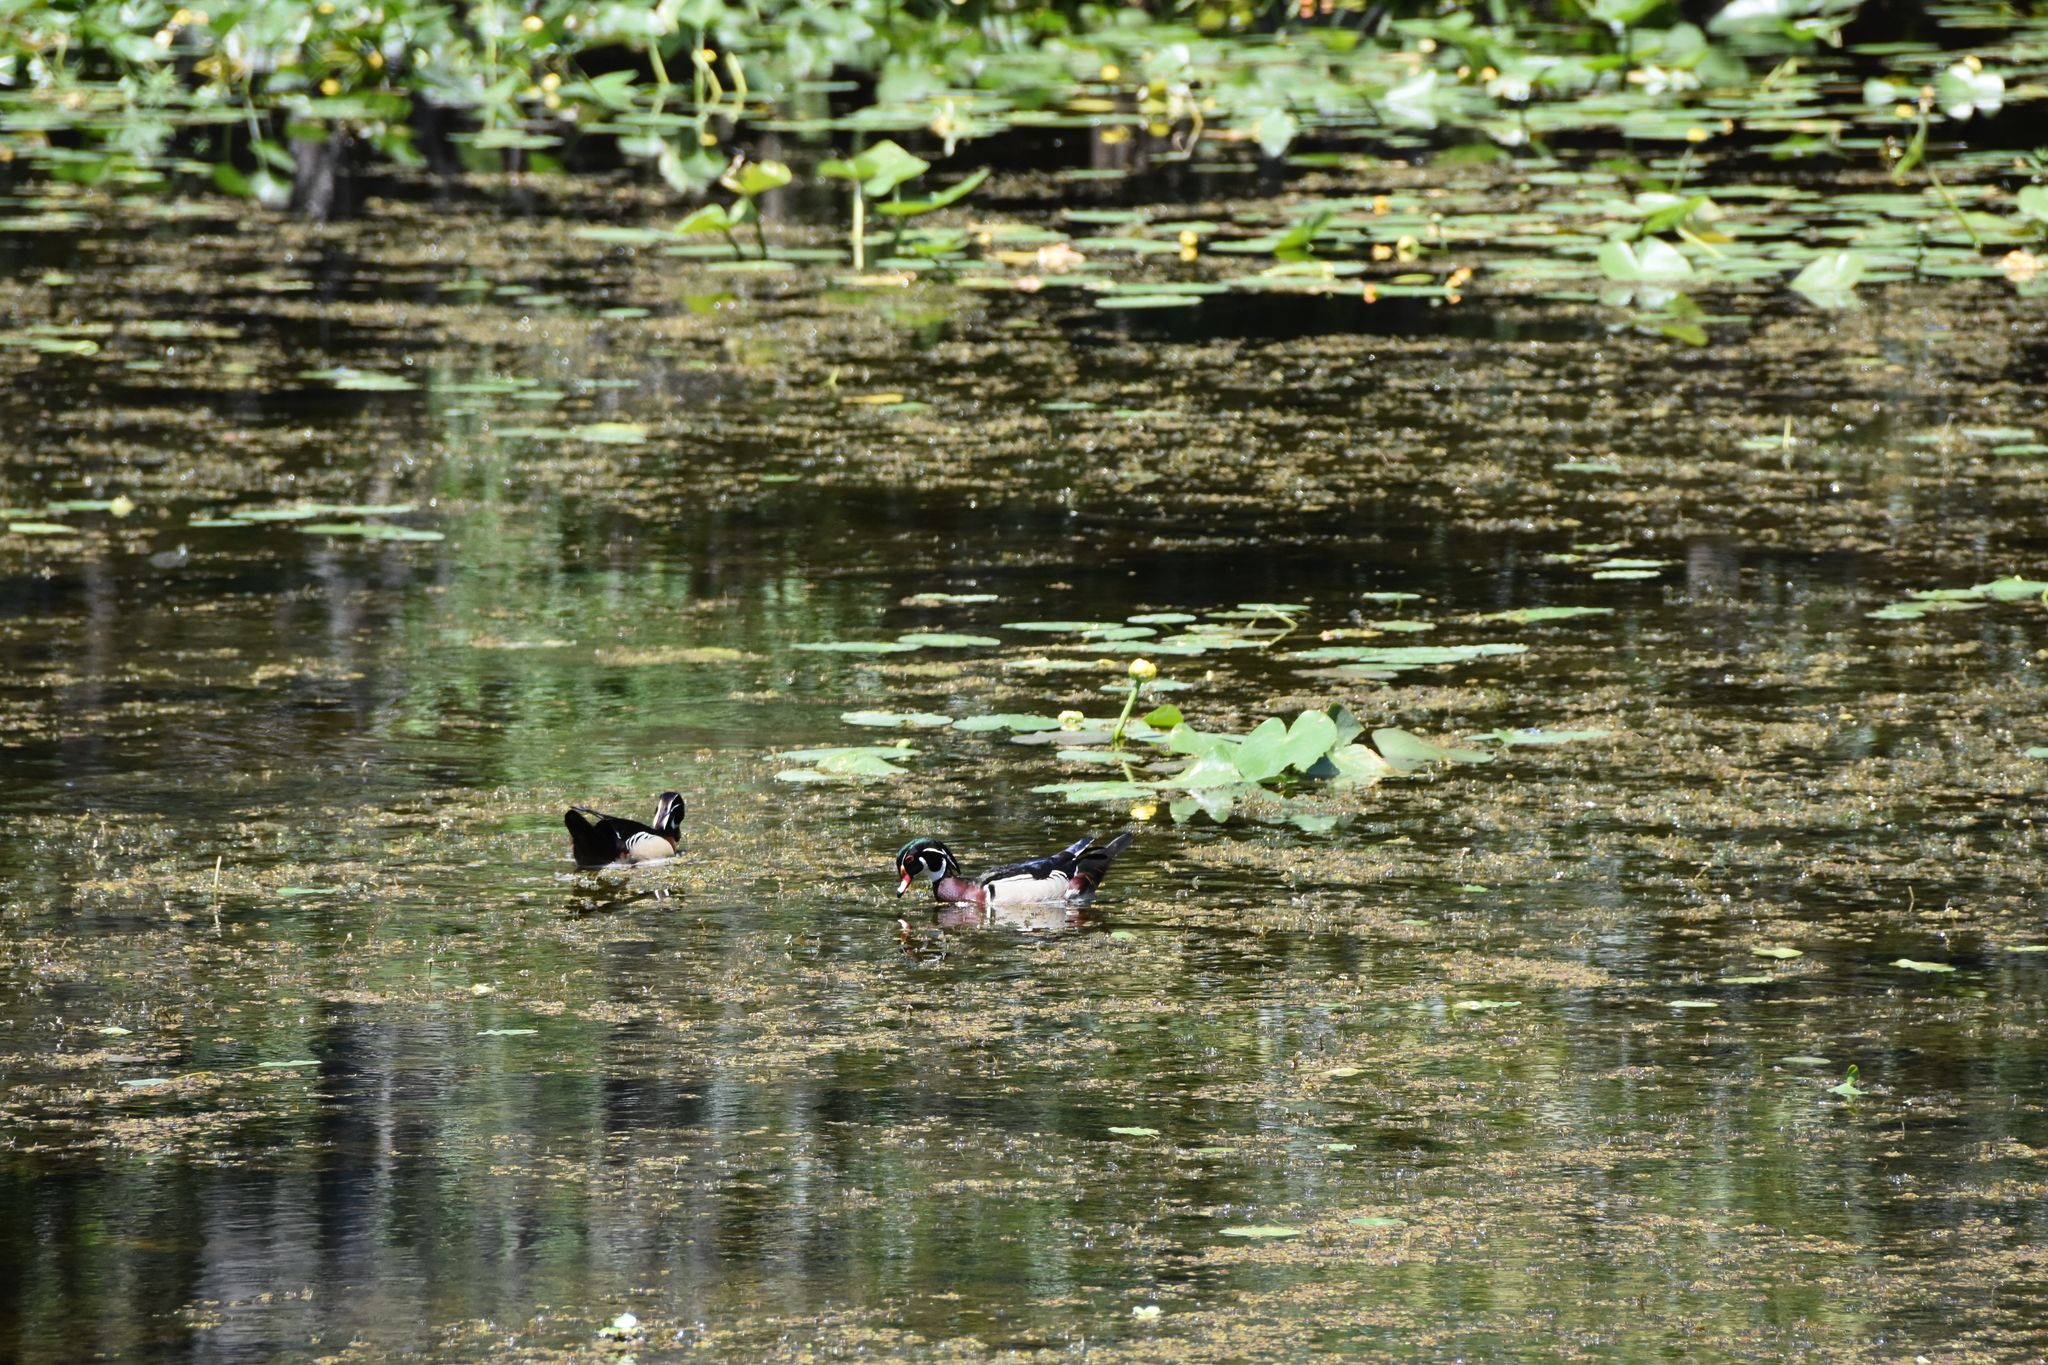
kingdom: Animalia
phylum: Chordata
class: Aves
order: Anseriformes
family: Anatidae
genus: Aix
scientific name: Aix sponsa
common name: Wood duck
